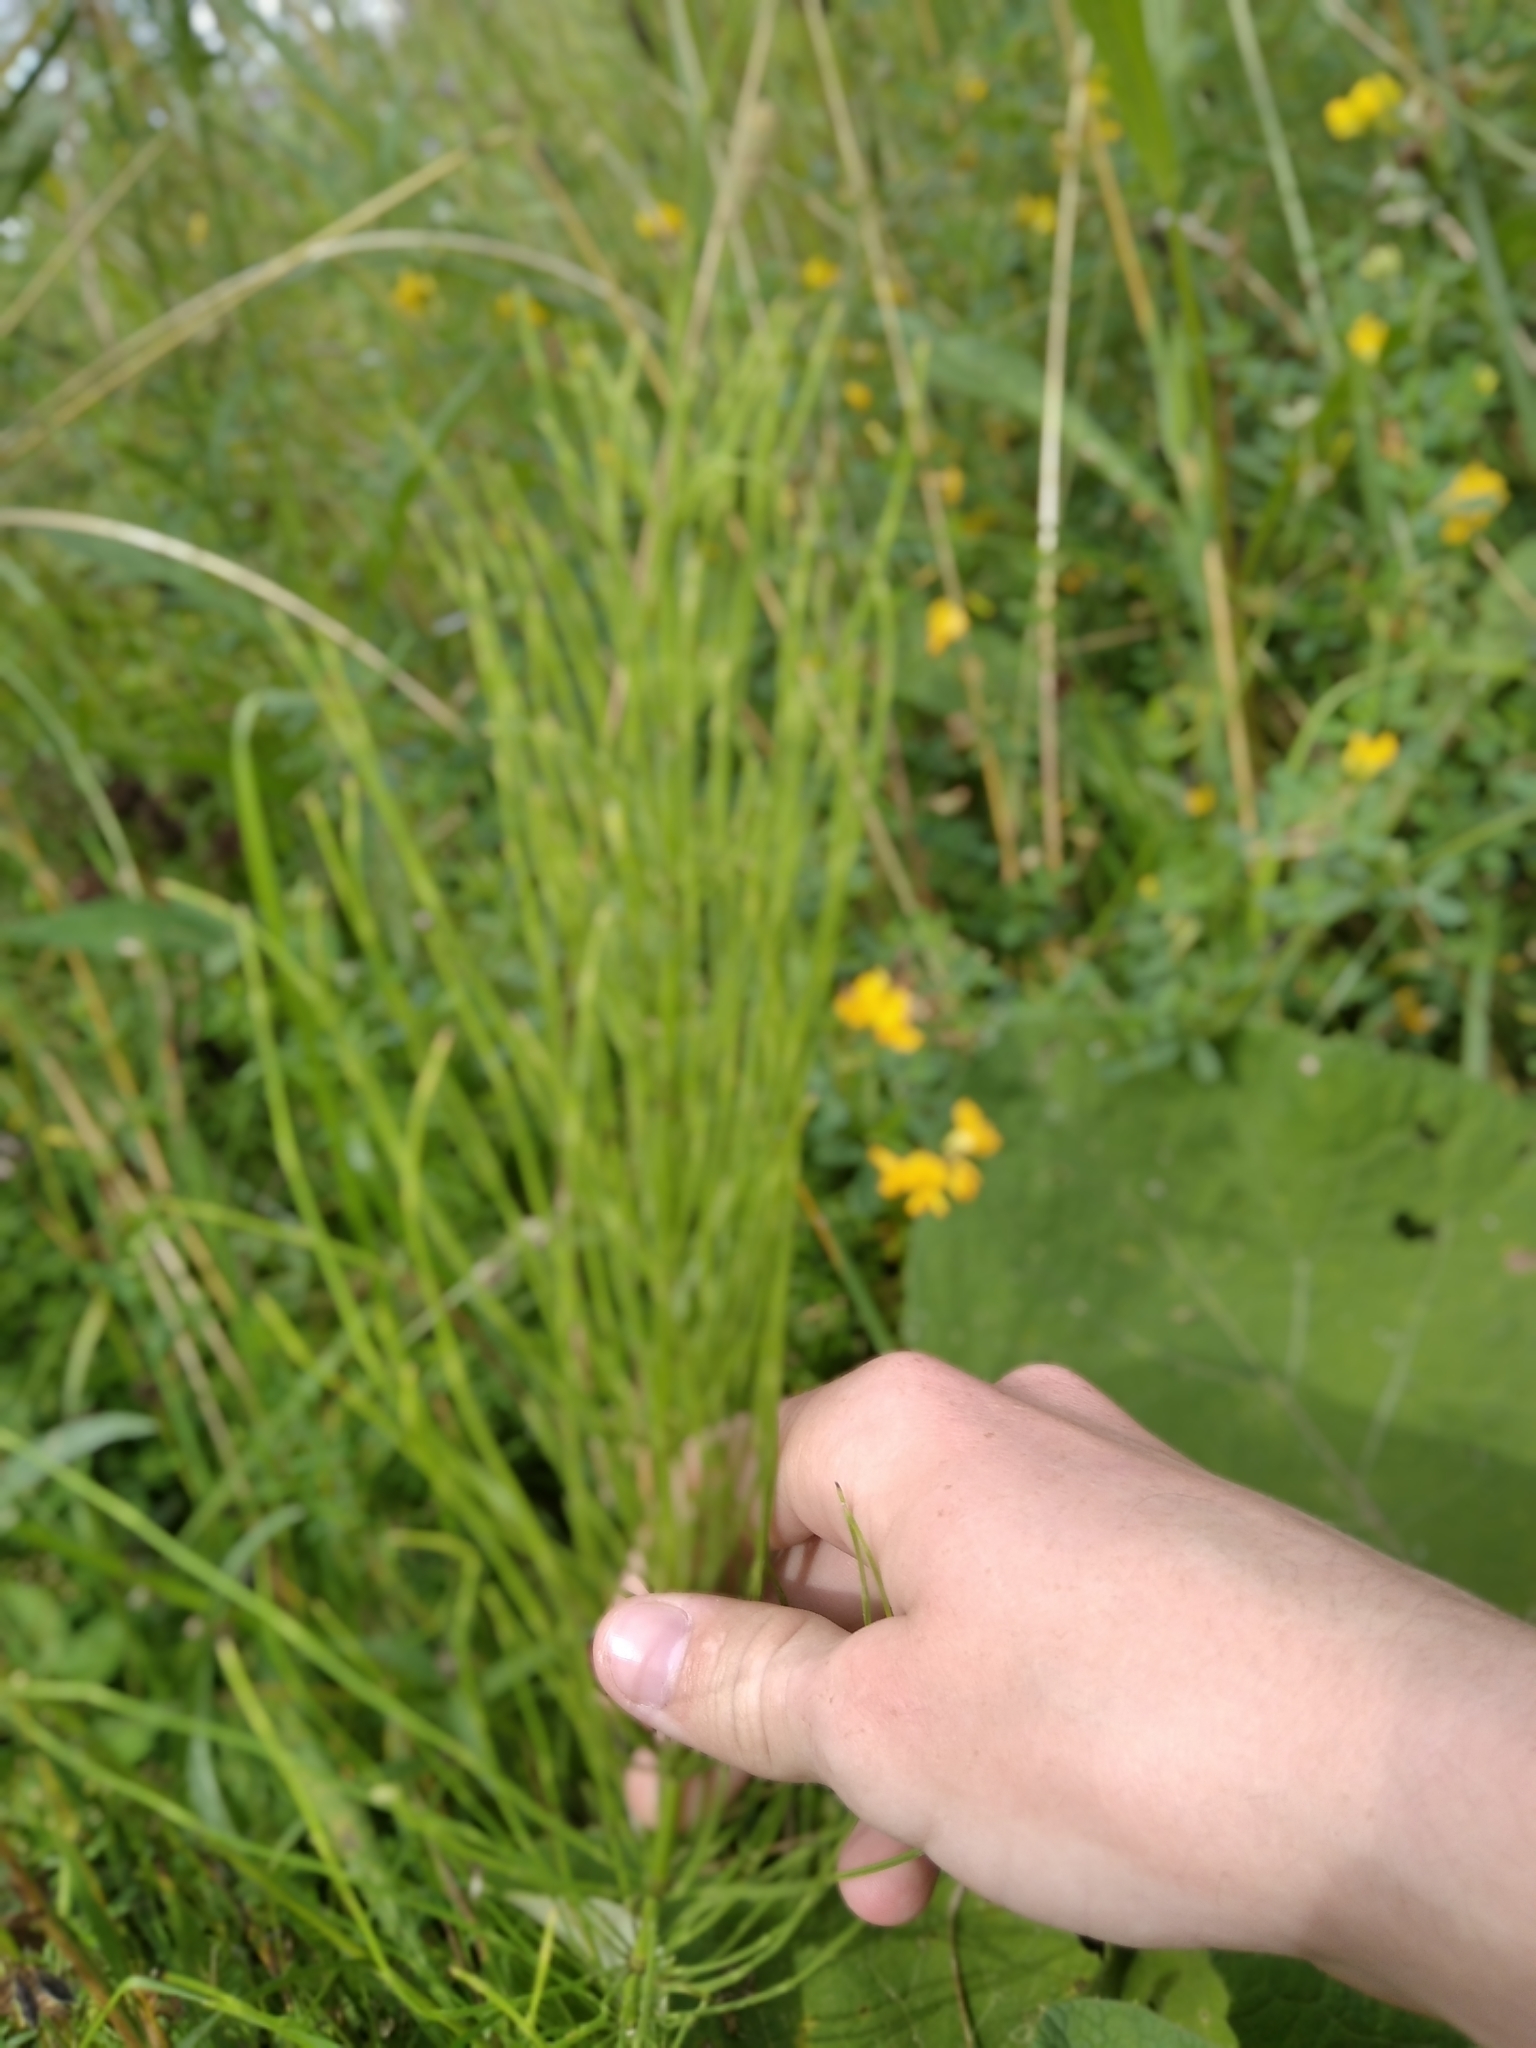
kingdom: Plantae
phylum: Tracheophyta
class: Polypodiopsida
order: Equisetales
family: Equisetaceae
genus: Equisetum
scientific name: Equisetum arvense
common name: Field horsetail
